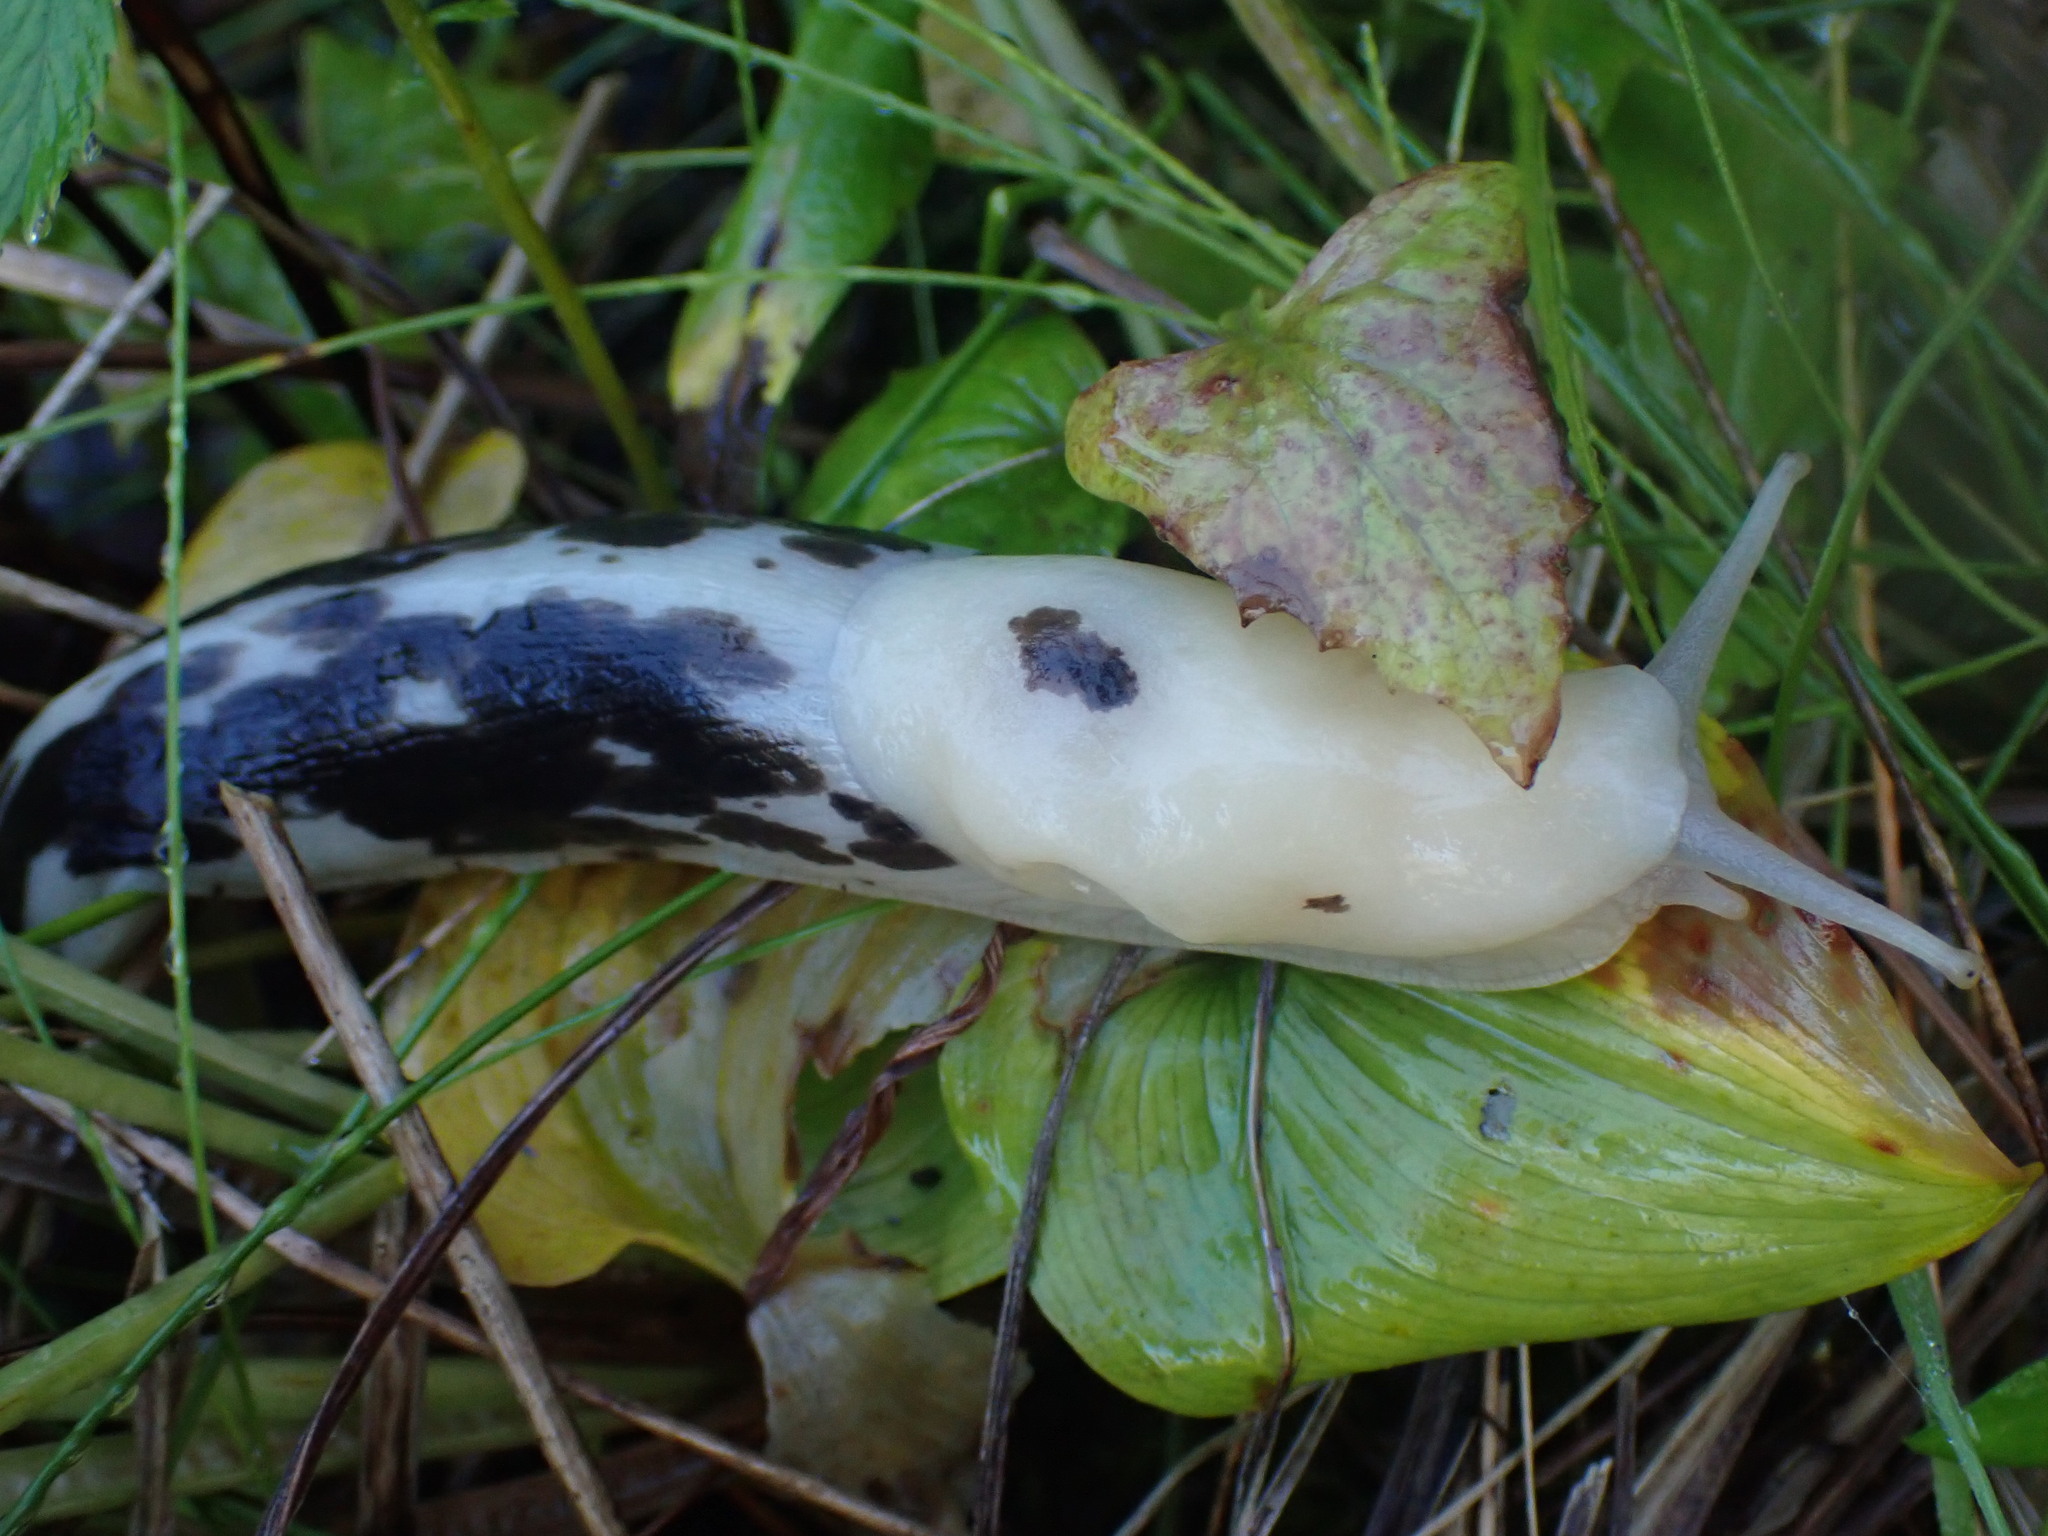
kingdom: Animalia
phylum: Mollusca
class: Gastropoda
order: Stylommatophora
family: Ariolimacidae
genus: Ariolimax
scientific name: Ariolimax columbianus
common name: Pacific banana slug
